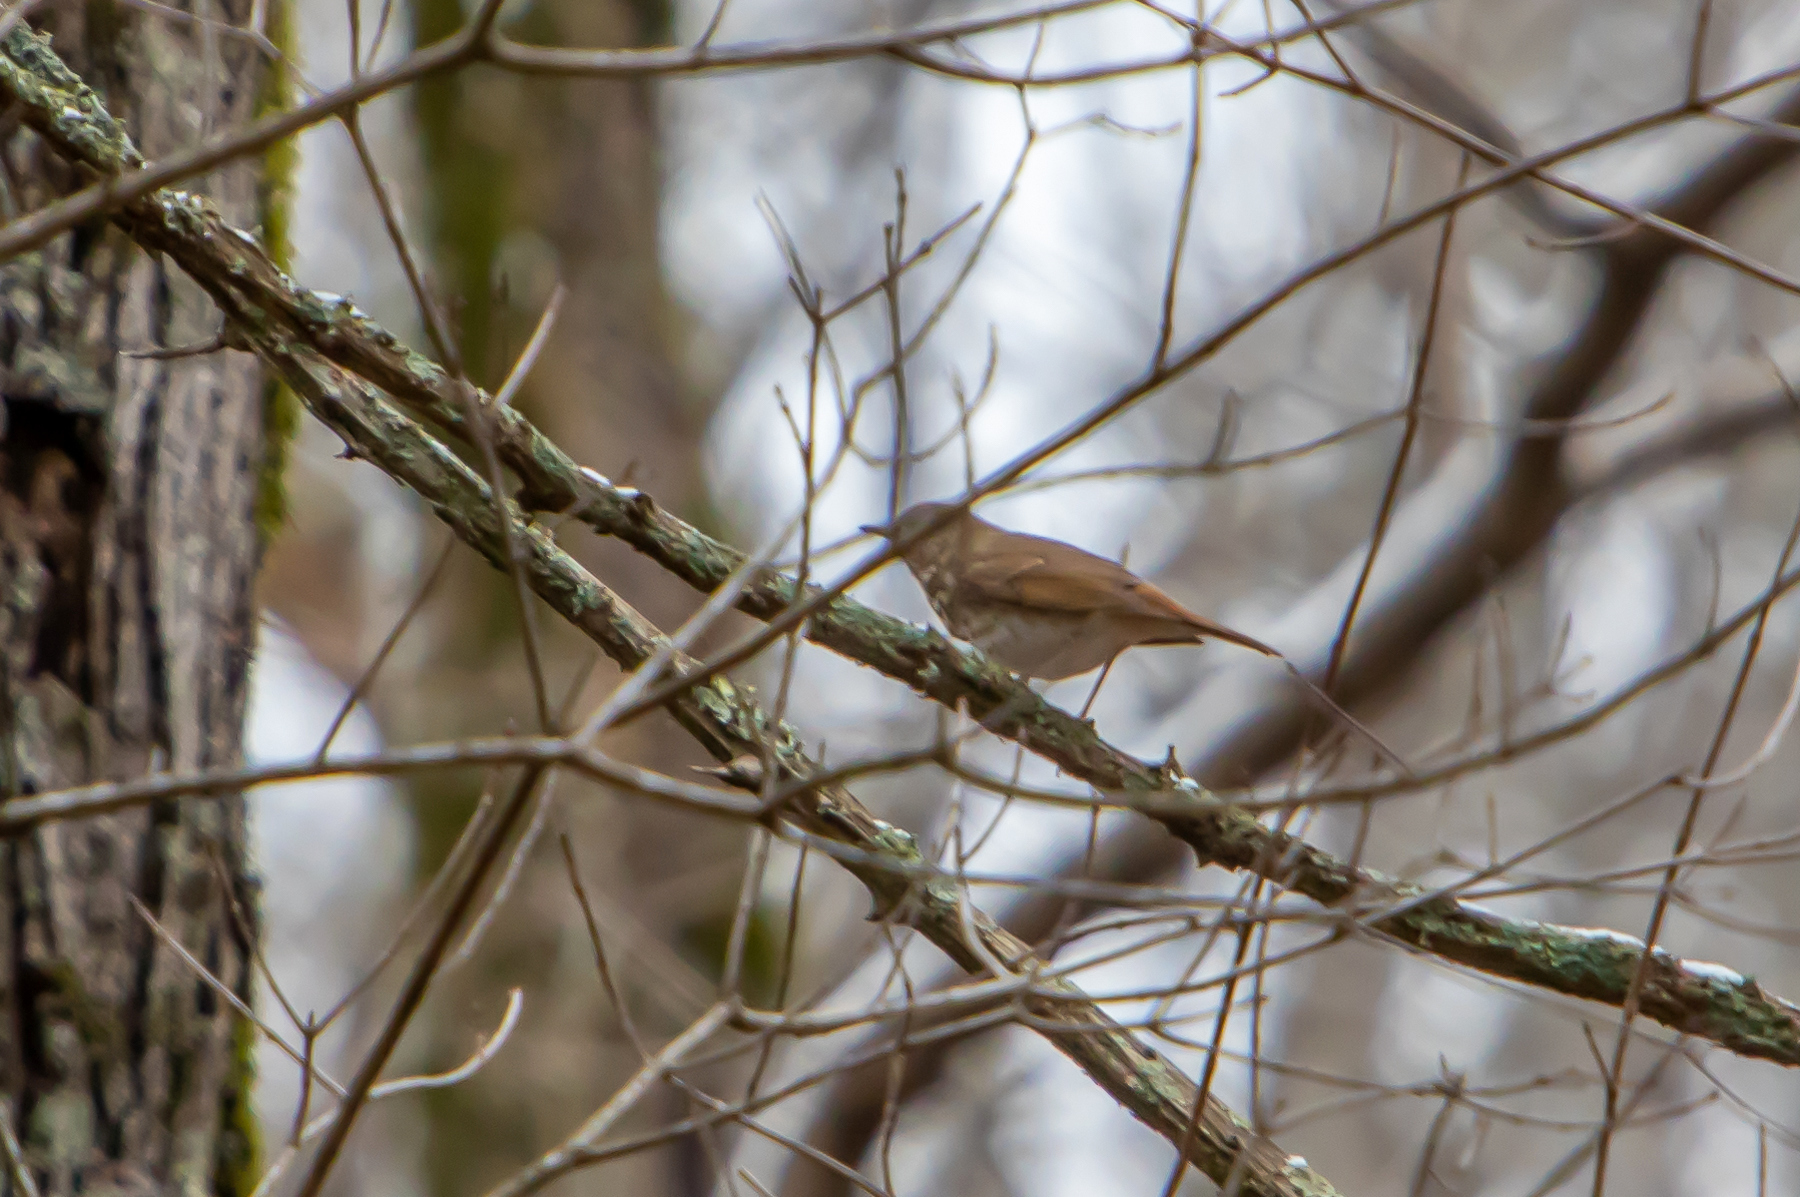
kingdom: Animalia
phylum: Chordata
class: Aves
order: Passeriformes
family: Turdidae
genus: Catharus
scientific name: Catharus guttatus
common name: Hermit thrush
